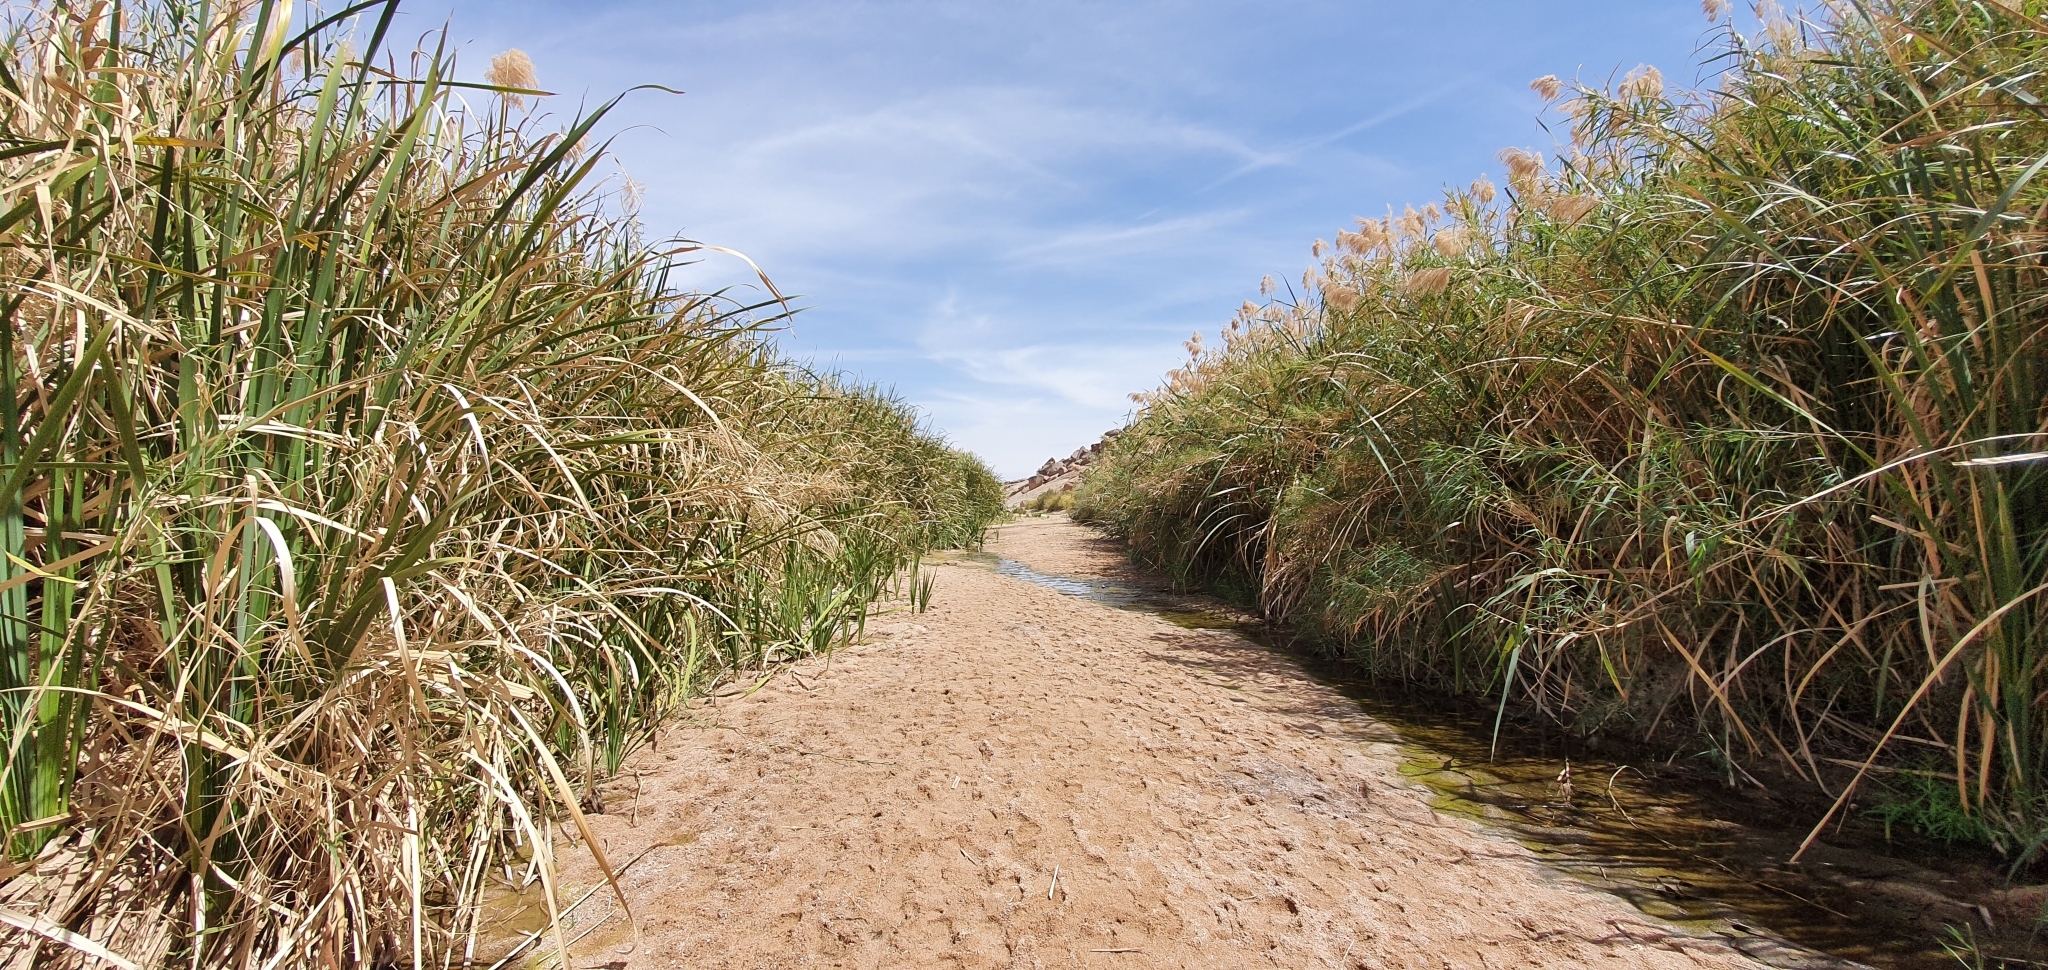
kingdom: Plantae
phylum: Tracheophyta
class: Liliopsida
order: Poales
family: Poaceae
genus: Phragmites
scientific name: Phragmites australis
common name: Common reed
